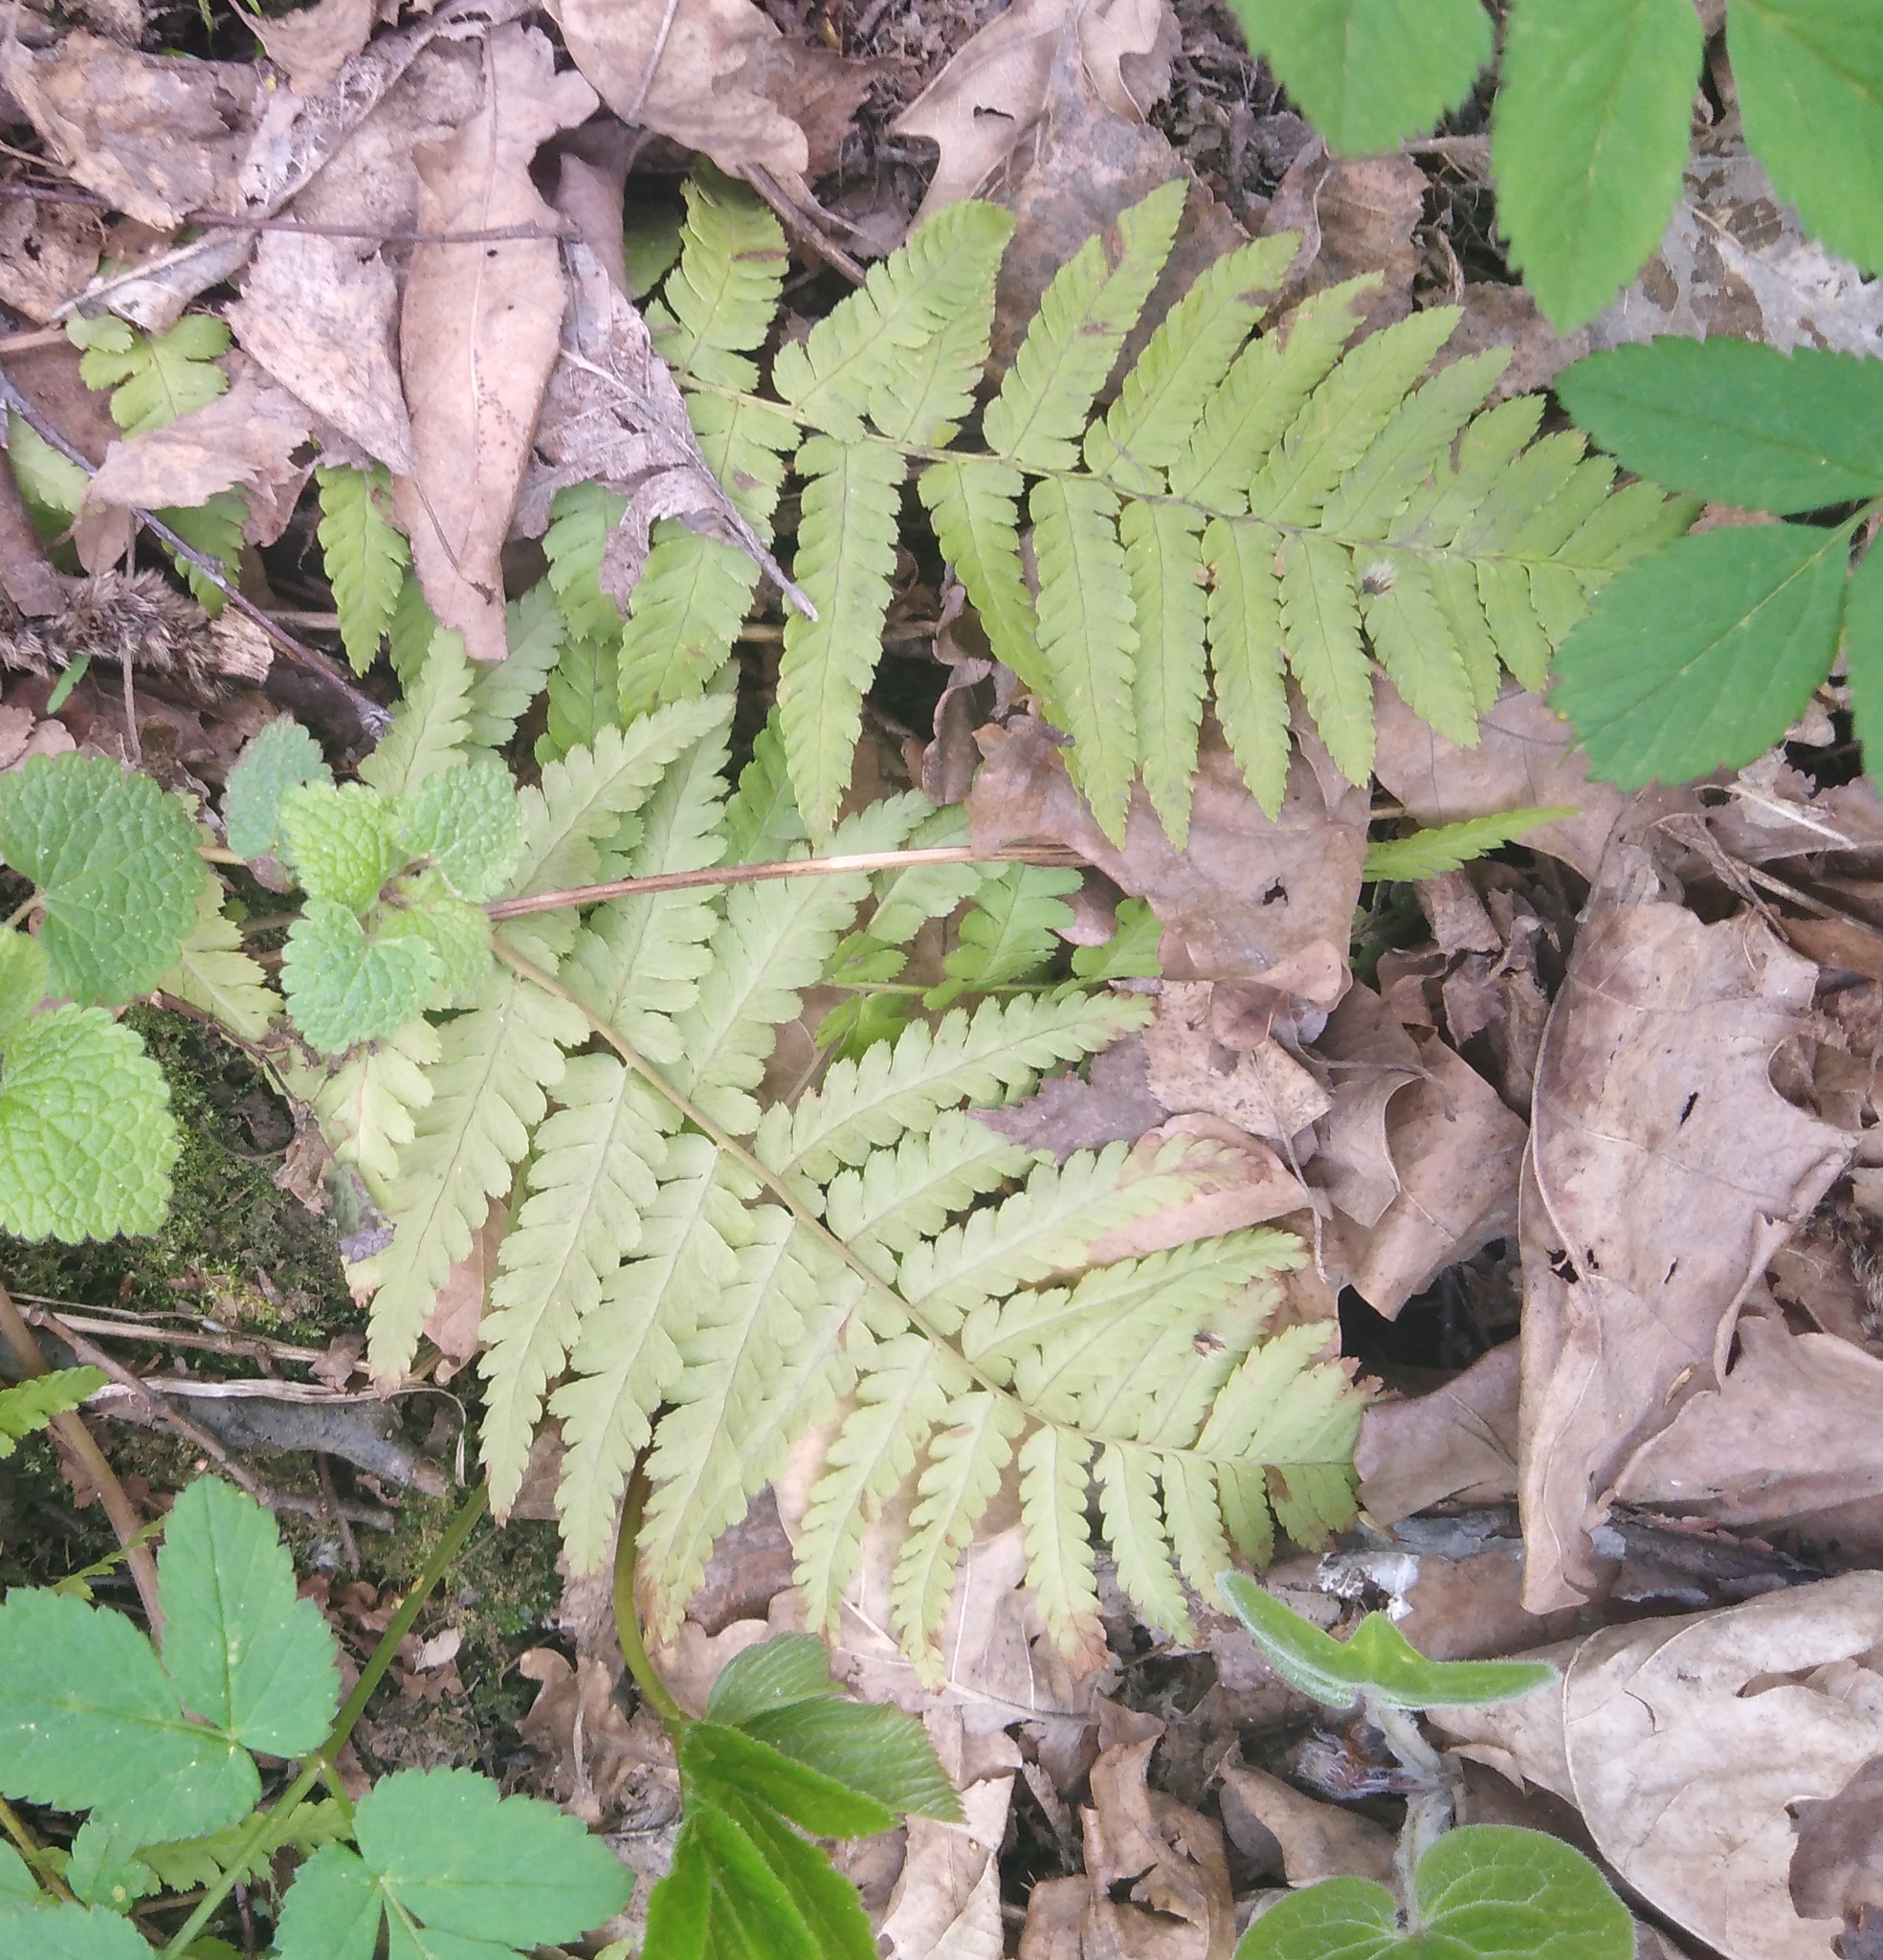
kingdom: Plantae
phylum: Tracheophyta
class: Polypodiopsida
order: Polypodiales
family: Dryopteridaceae
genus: Dryopteris
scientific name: Dryopteris filix-mas
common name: Male fern
